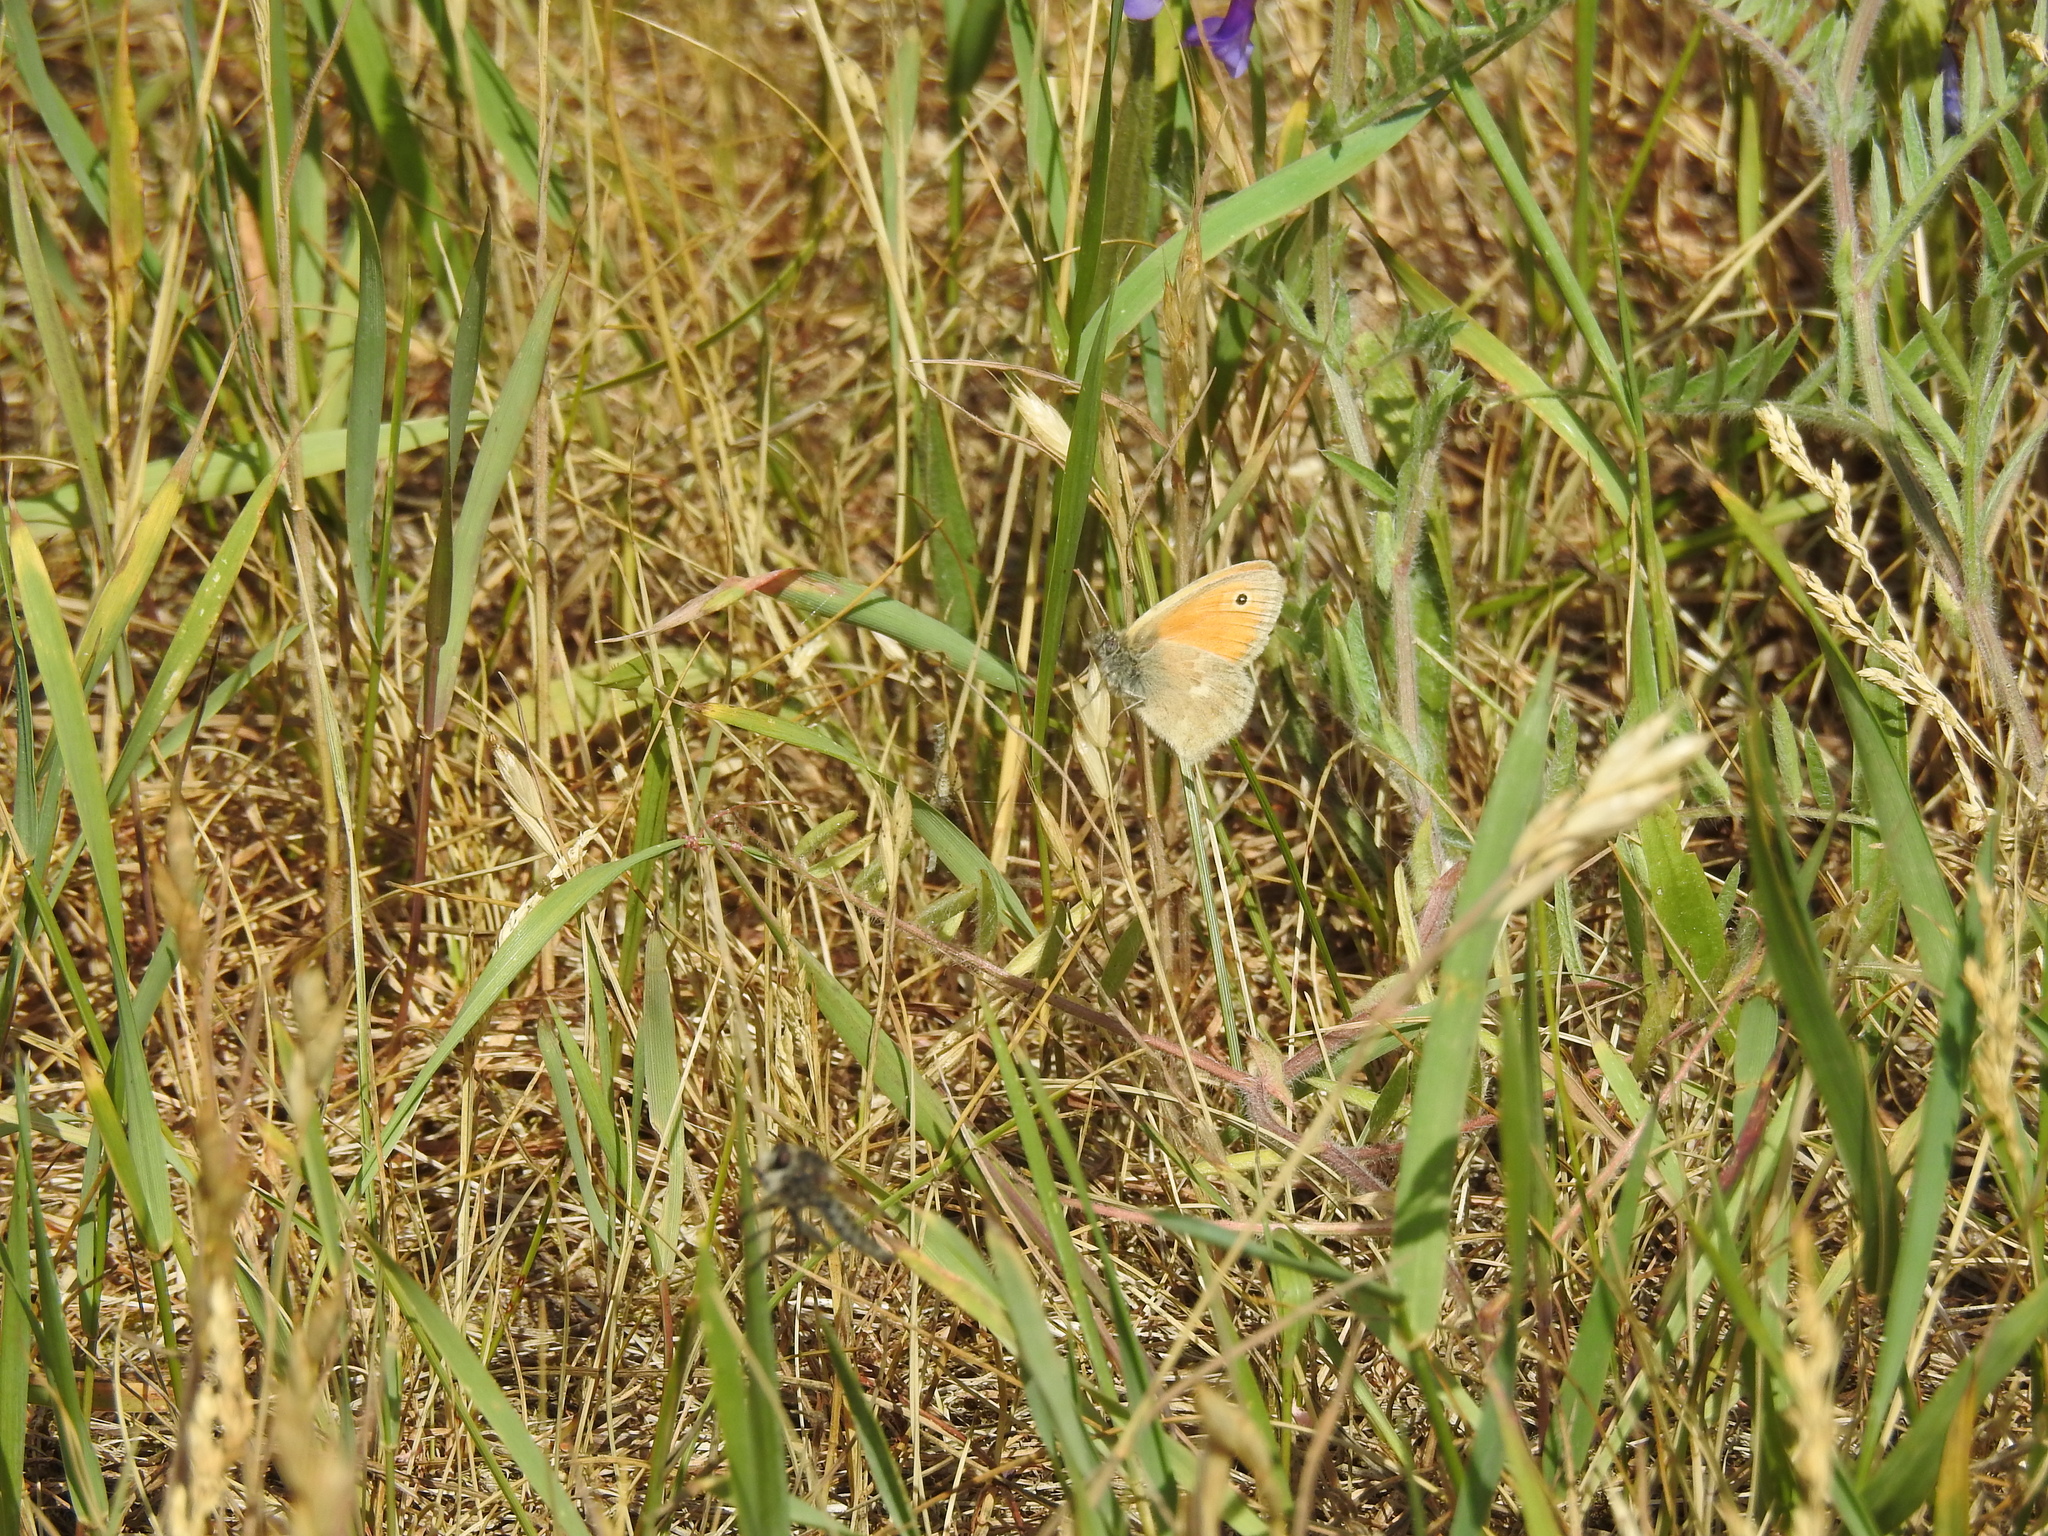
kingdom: Animalia
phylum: Arthropoda
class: Insecta
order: Lepidoptera
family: Nymphalidae
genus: Coenonympha
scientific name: Coenonympha pamphilus
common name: Small heath
